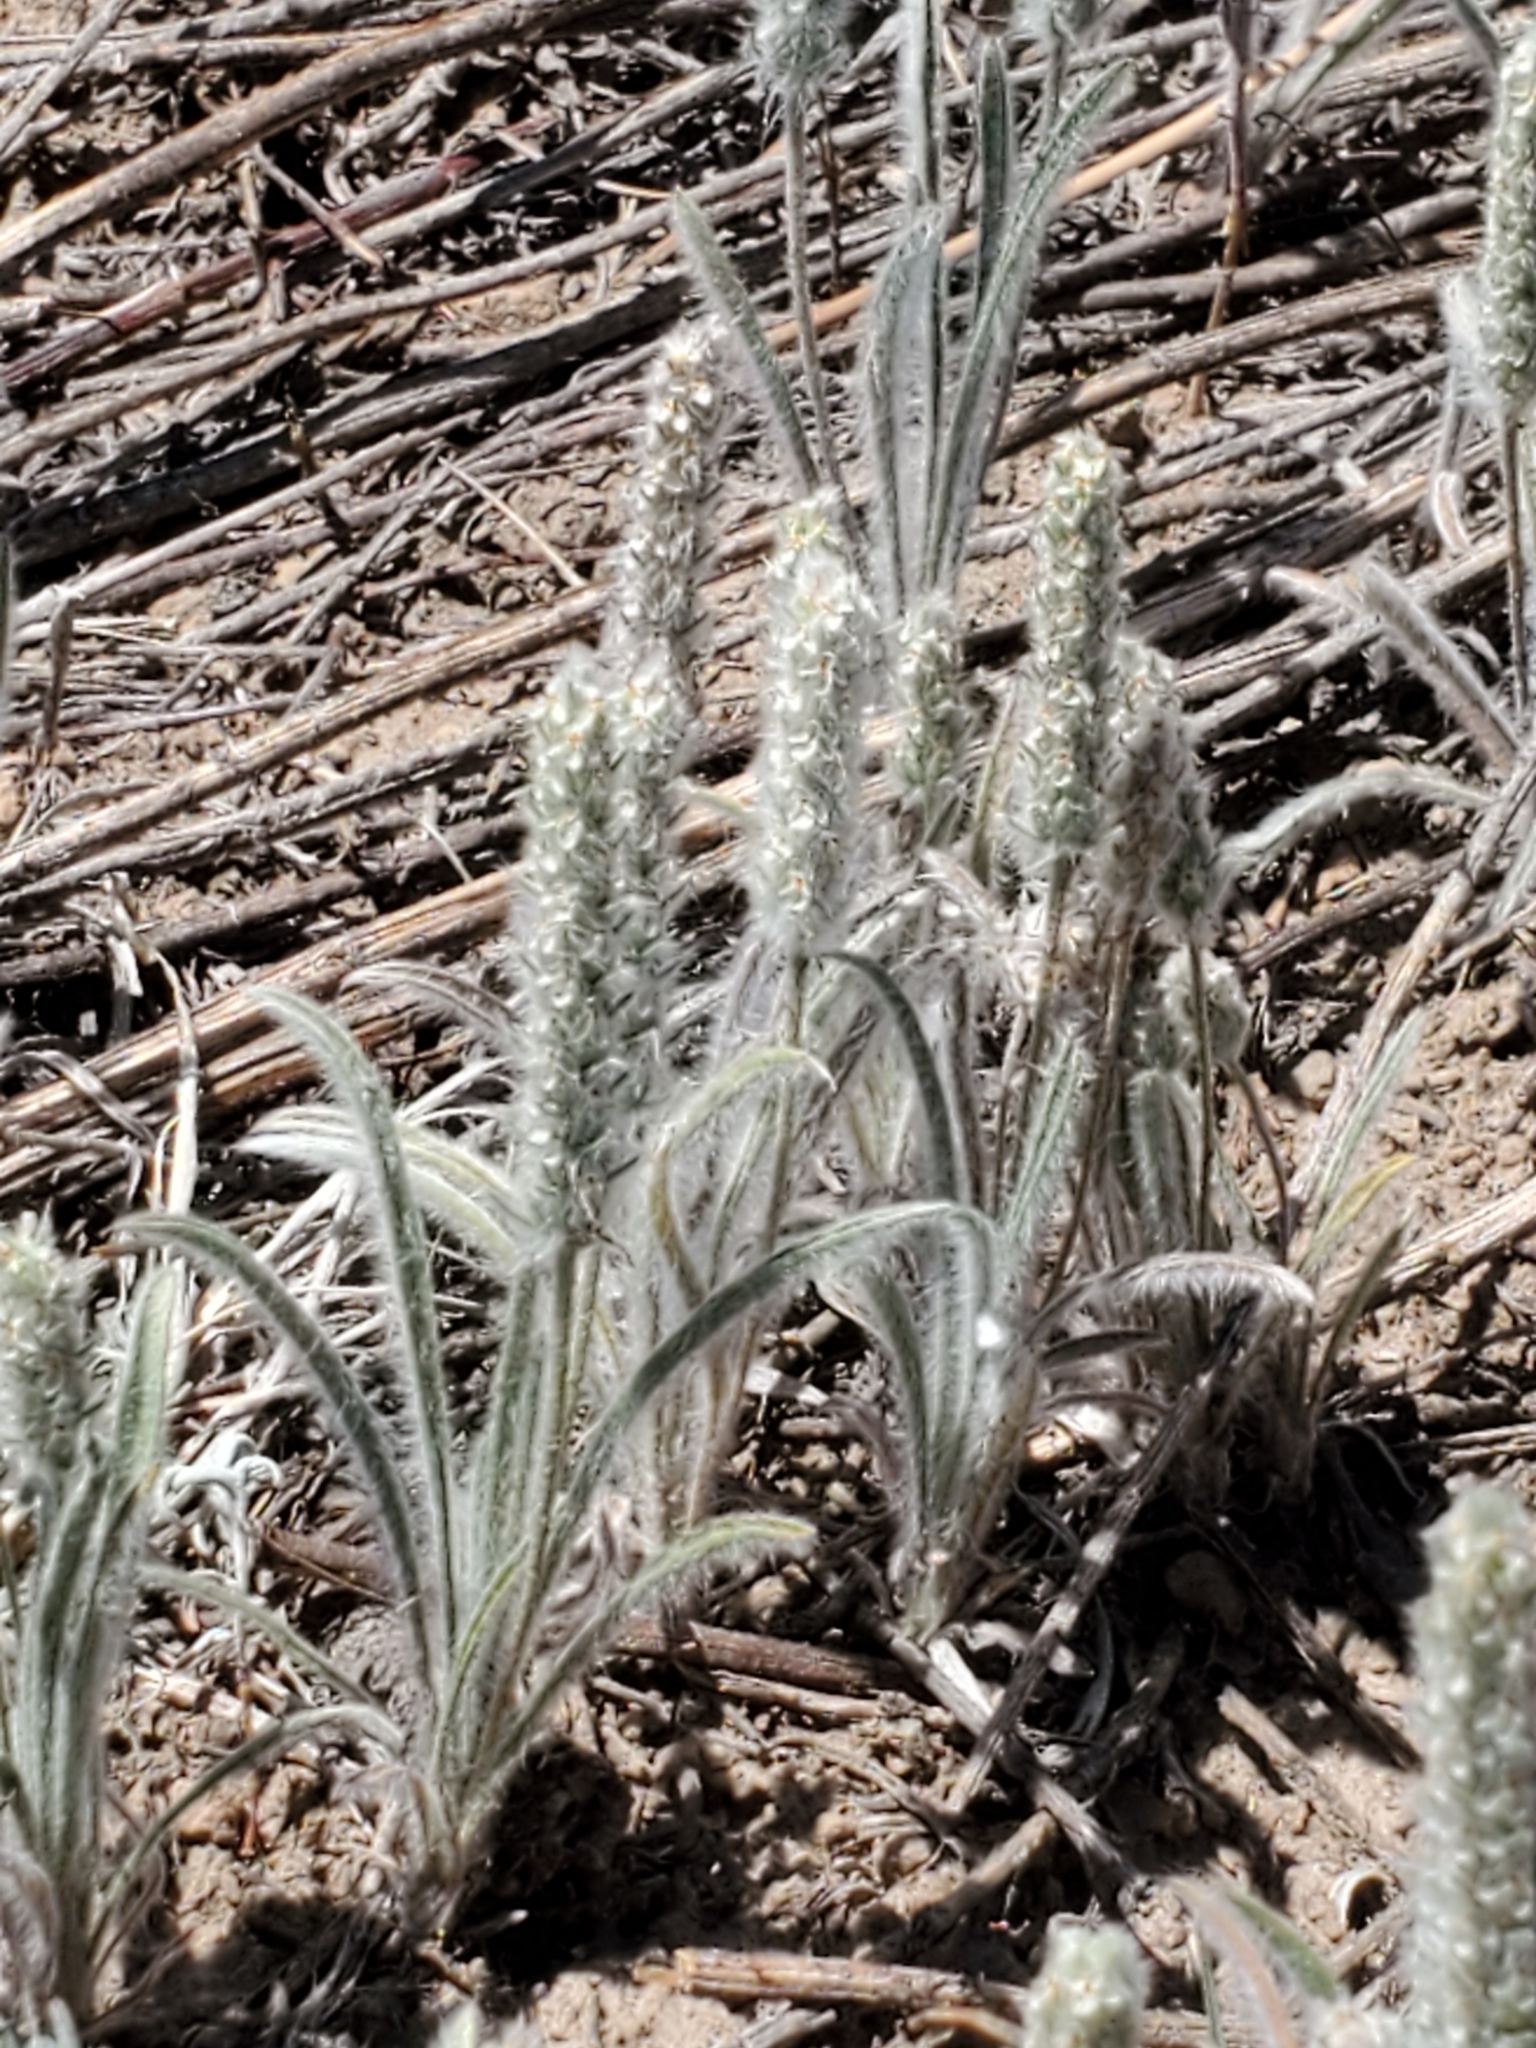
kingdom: Plantae
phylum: Tracheophyta
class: Magnoliopsida
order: Lamiales
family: Plantaginaceae
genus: Plantago
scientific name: Plantago patagonica
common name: Patagonia indian-wheat
